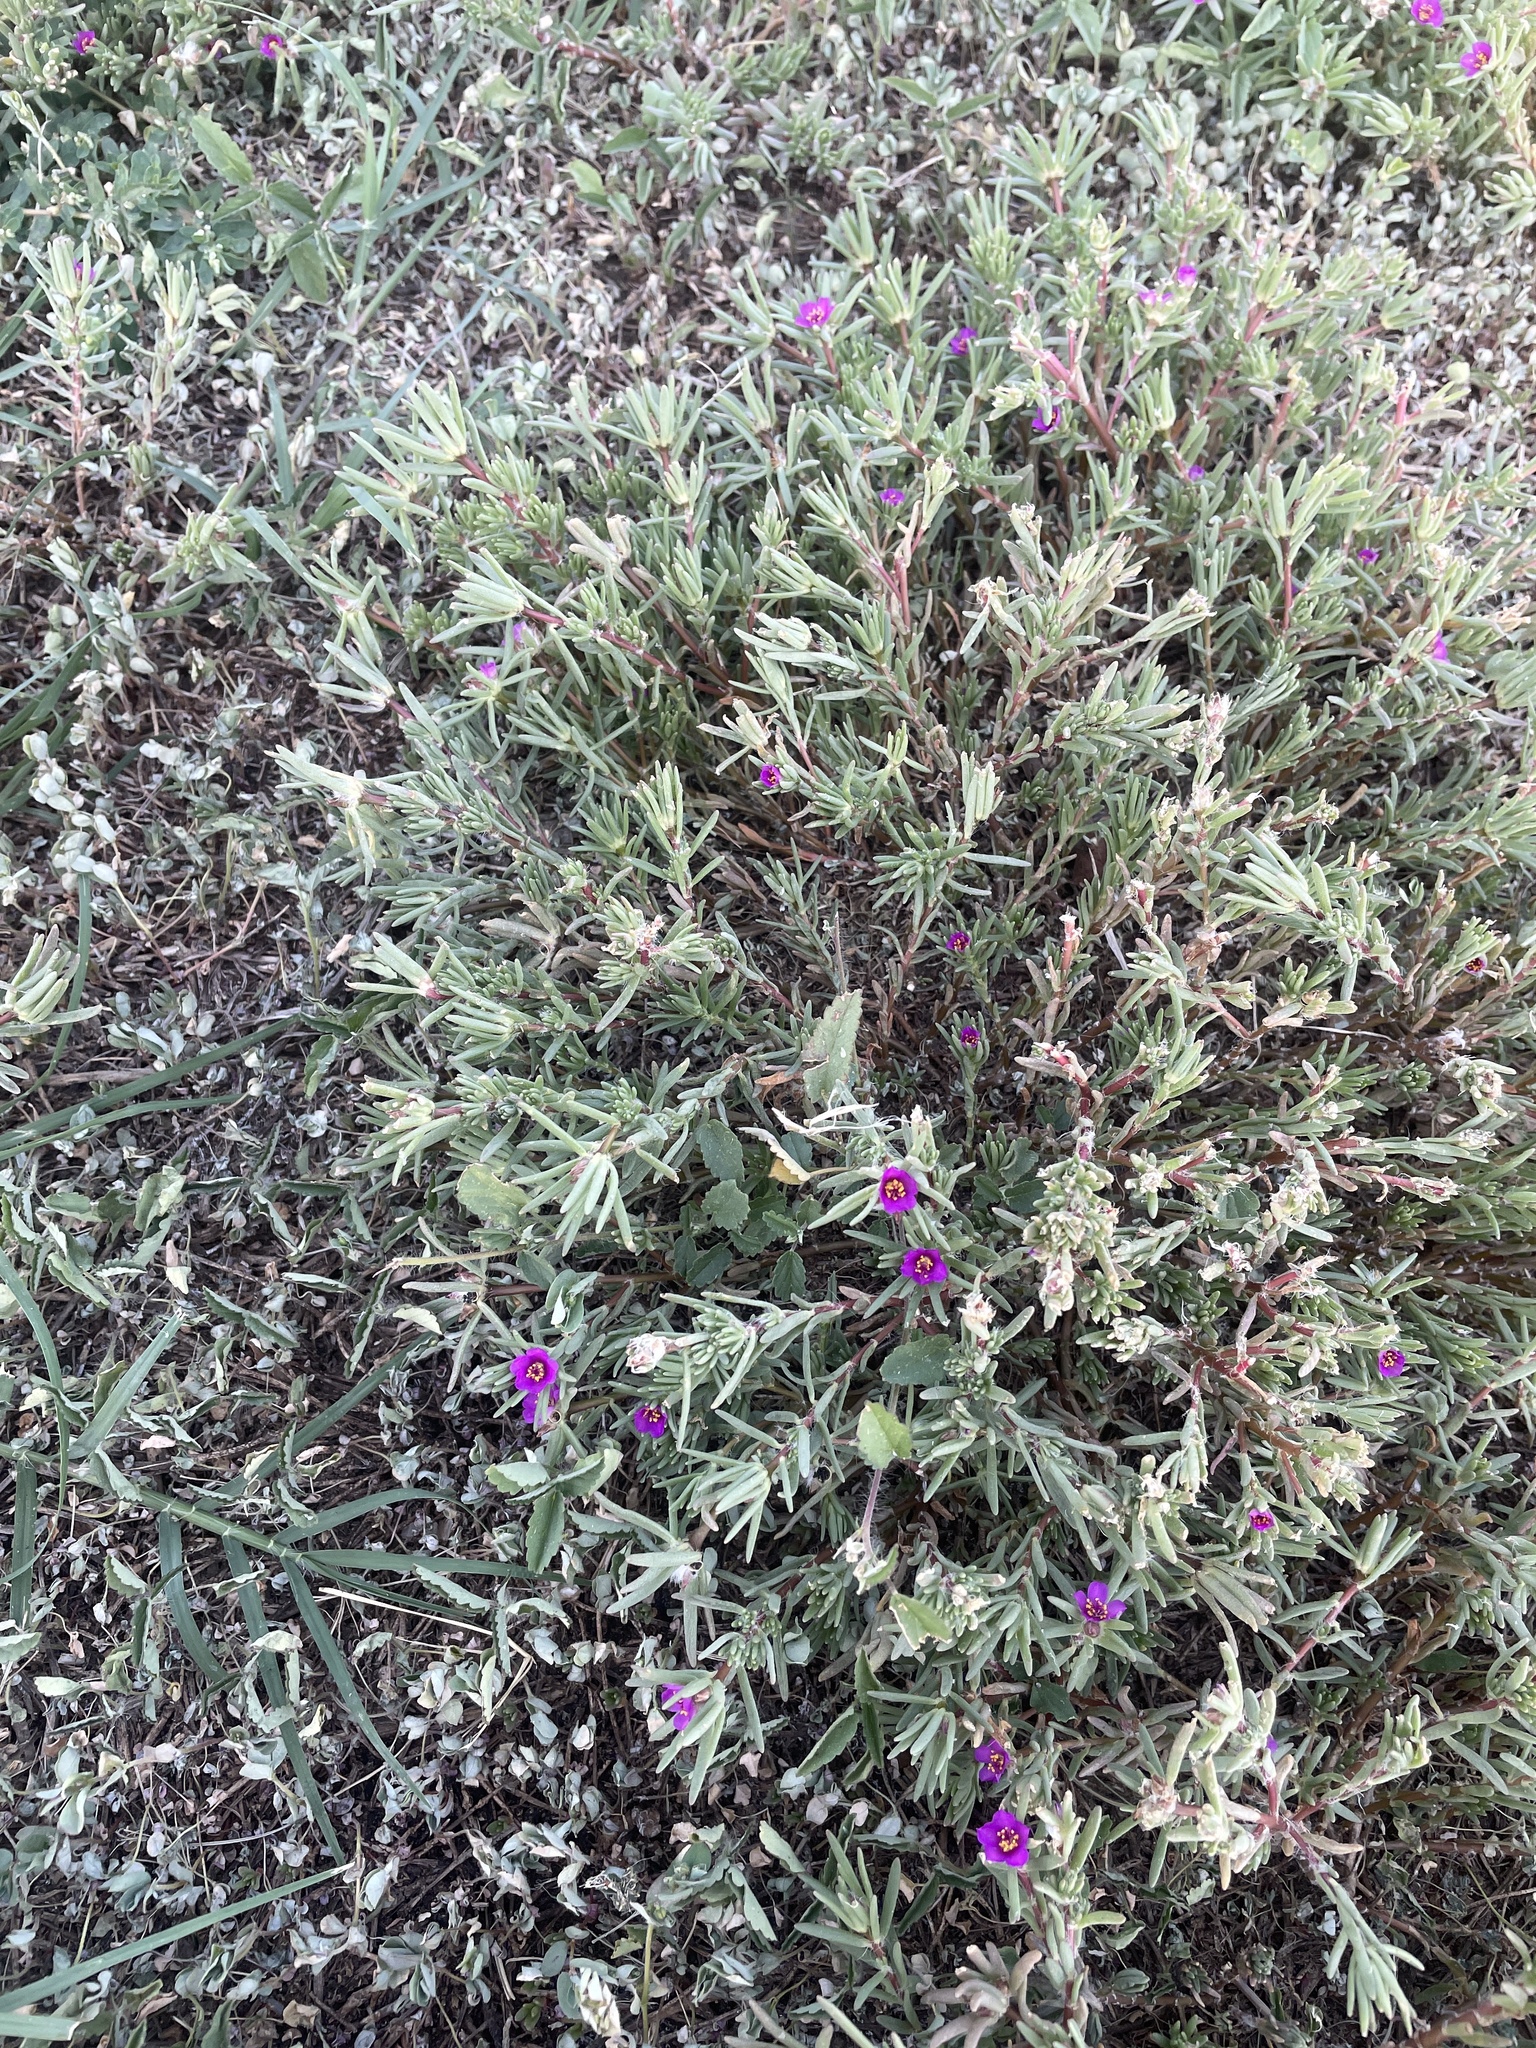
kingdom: Plantae
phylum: Tracheophyta
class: Magnoliopsida
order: Caryophyllales
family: Portulacaceae
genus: Portulaca
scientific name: Portulaca pilosa
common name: Kiss me quick
